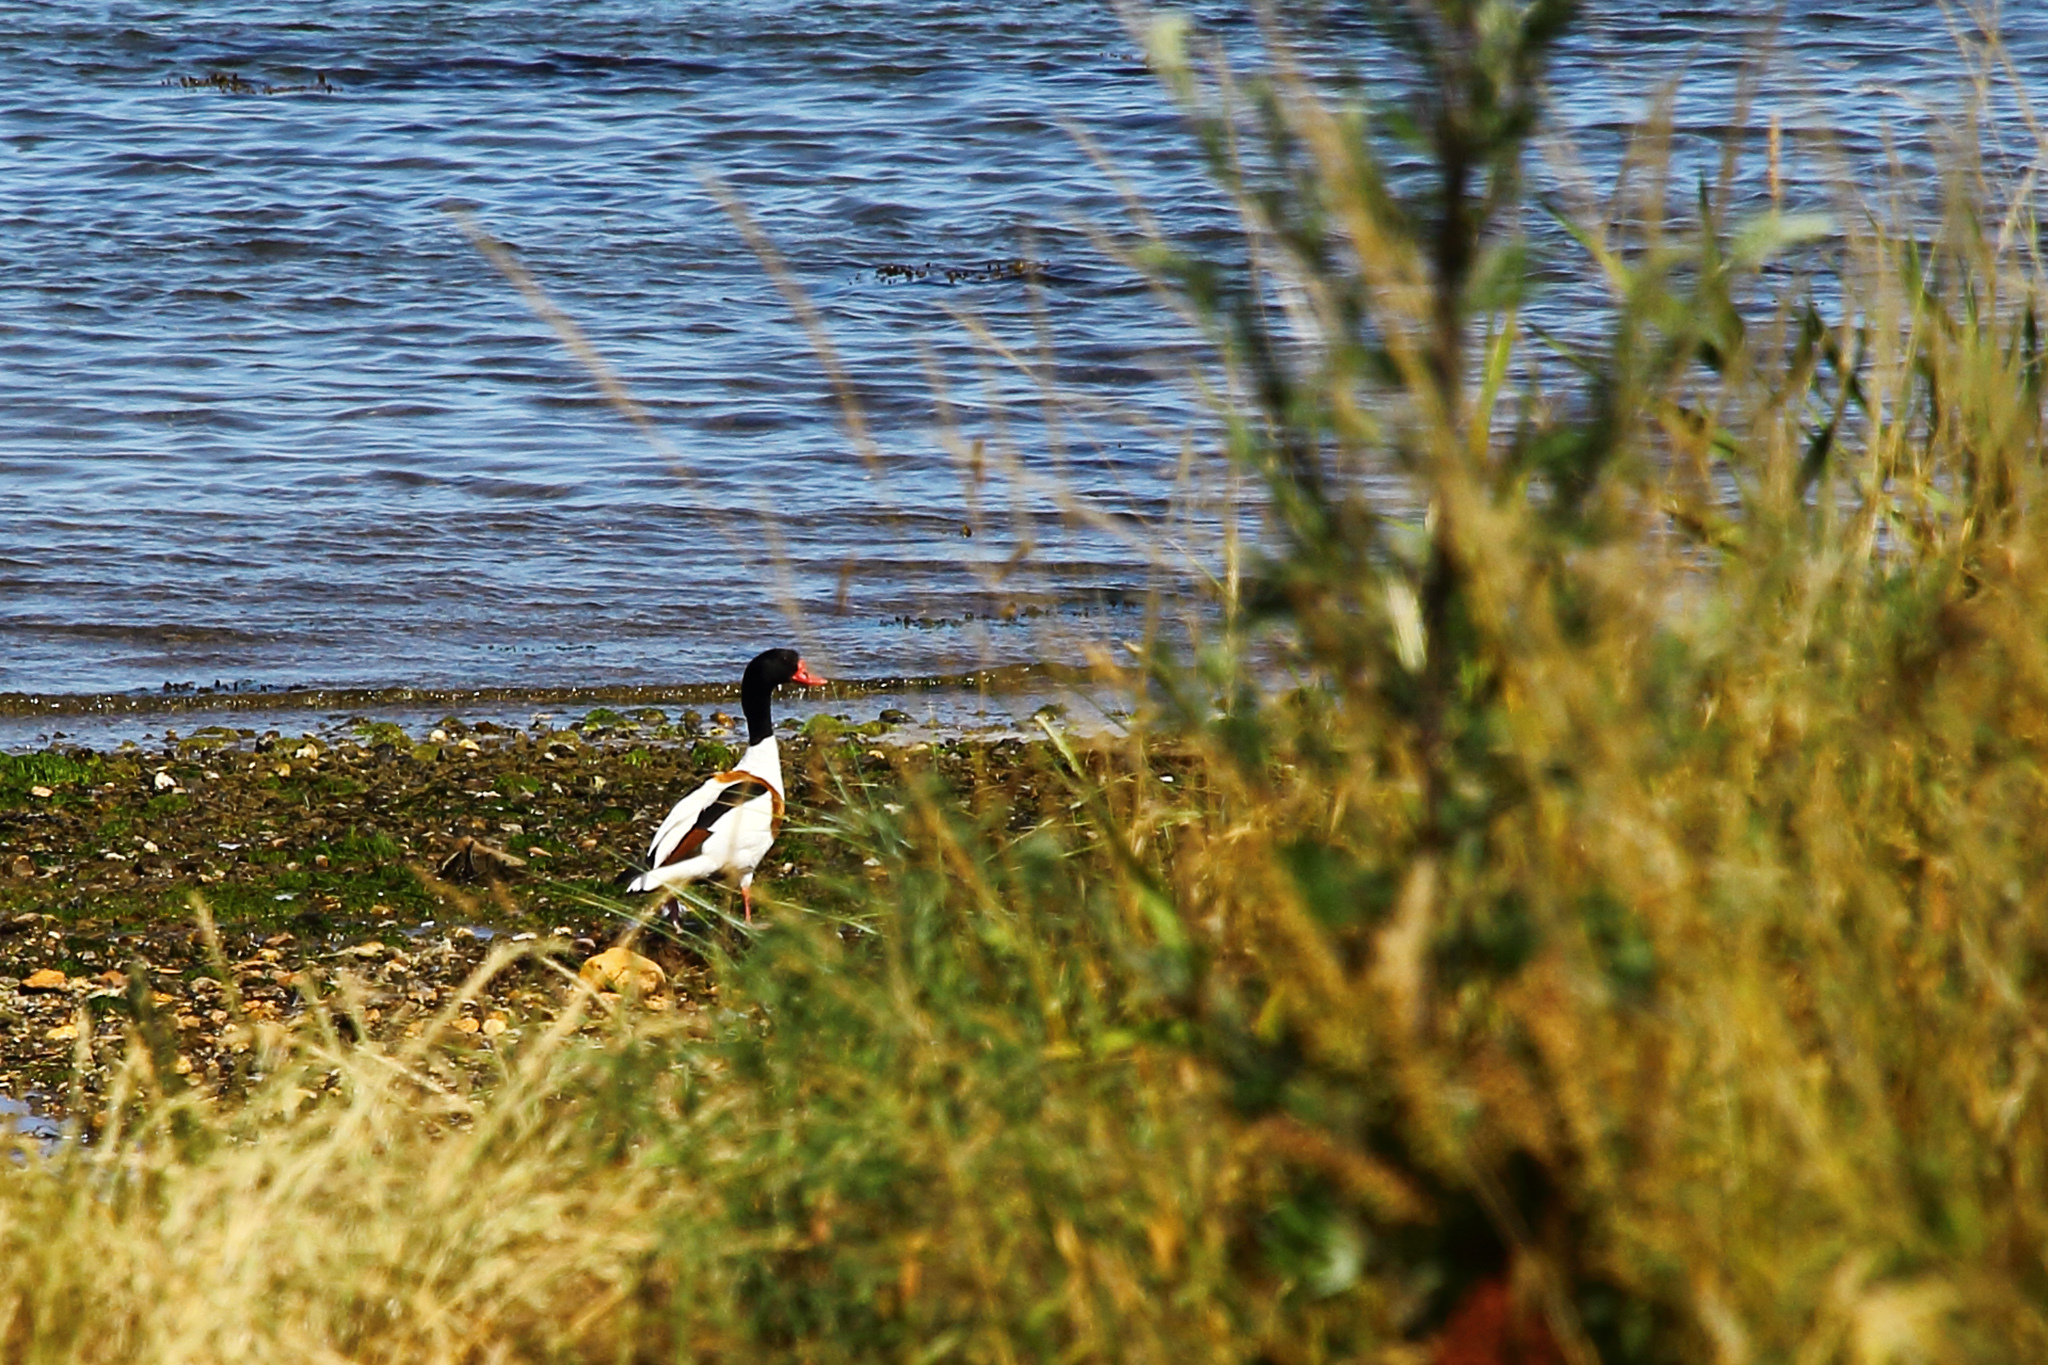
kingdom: Animalia
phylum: Chordata
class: Aves
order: Anseriformes
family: Anatidae
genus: Tadorna
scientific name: Tadorna tadorna
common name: Common shelduck
